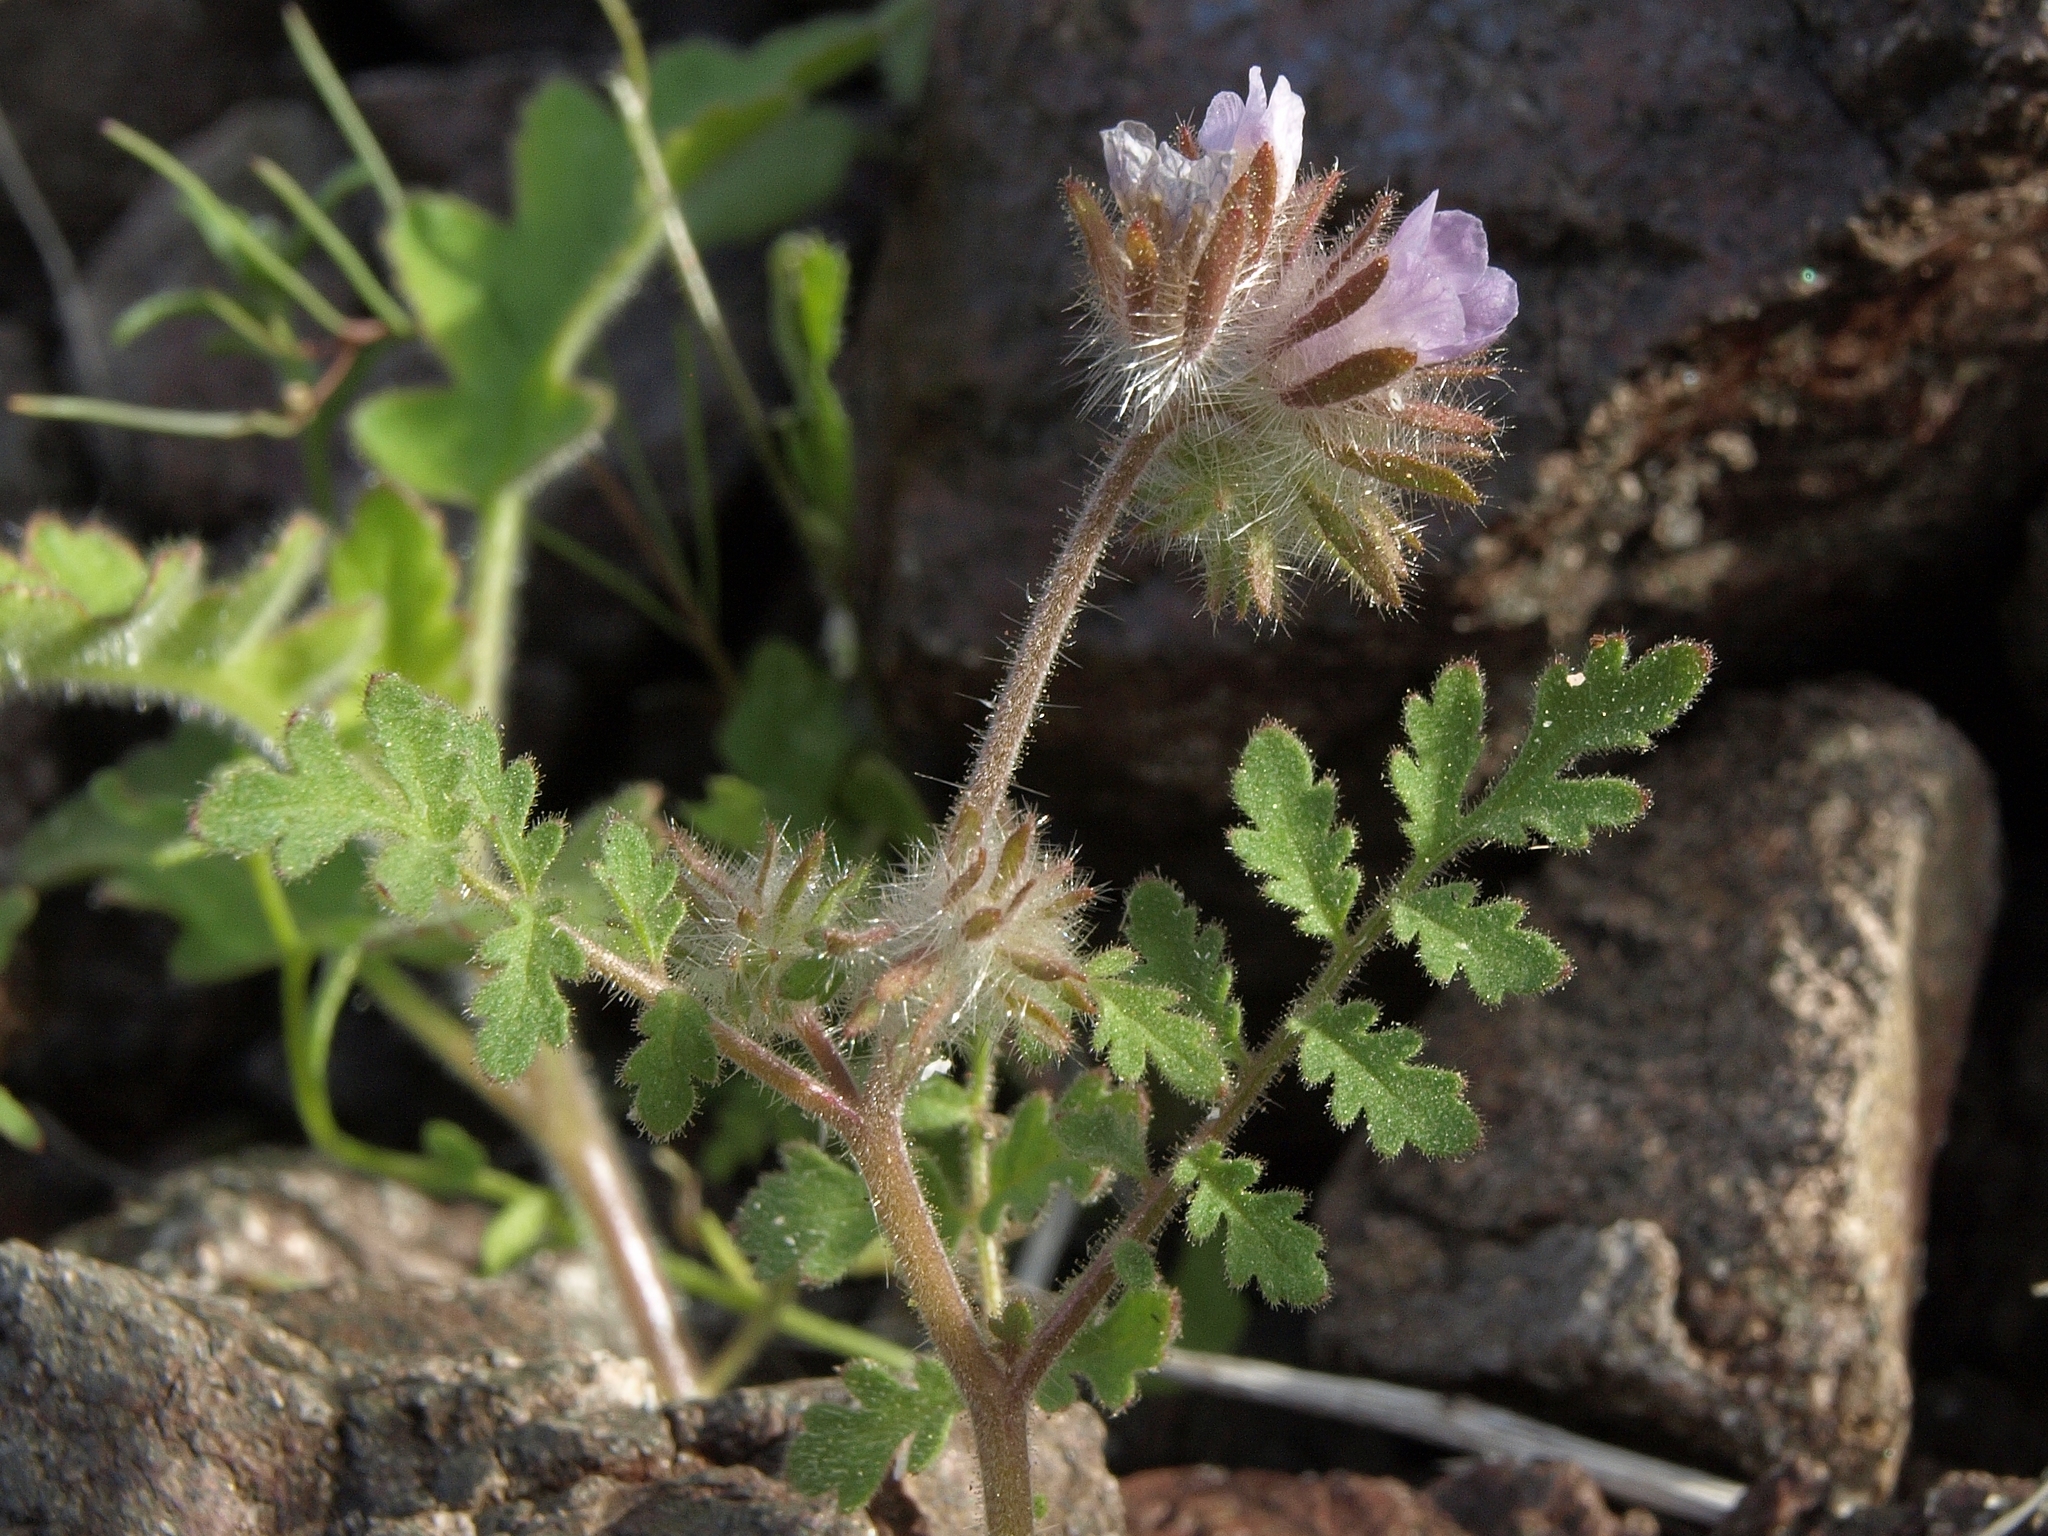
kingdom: Plantae
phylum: Tracheophyta
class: Magnoliopsida
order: Boraginales
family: Hydrophyllaceae
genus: Phacelia
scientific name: Phacelia cryptantha
